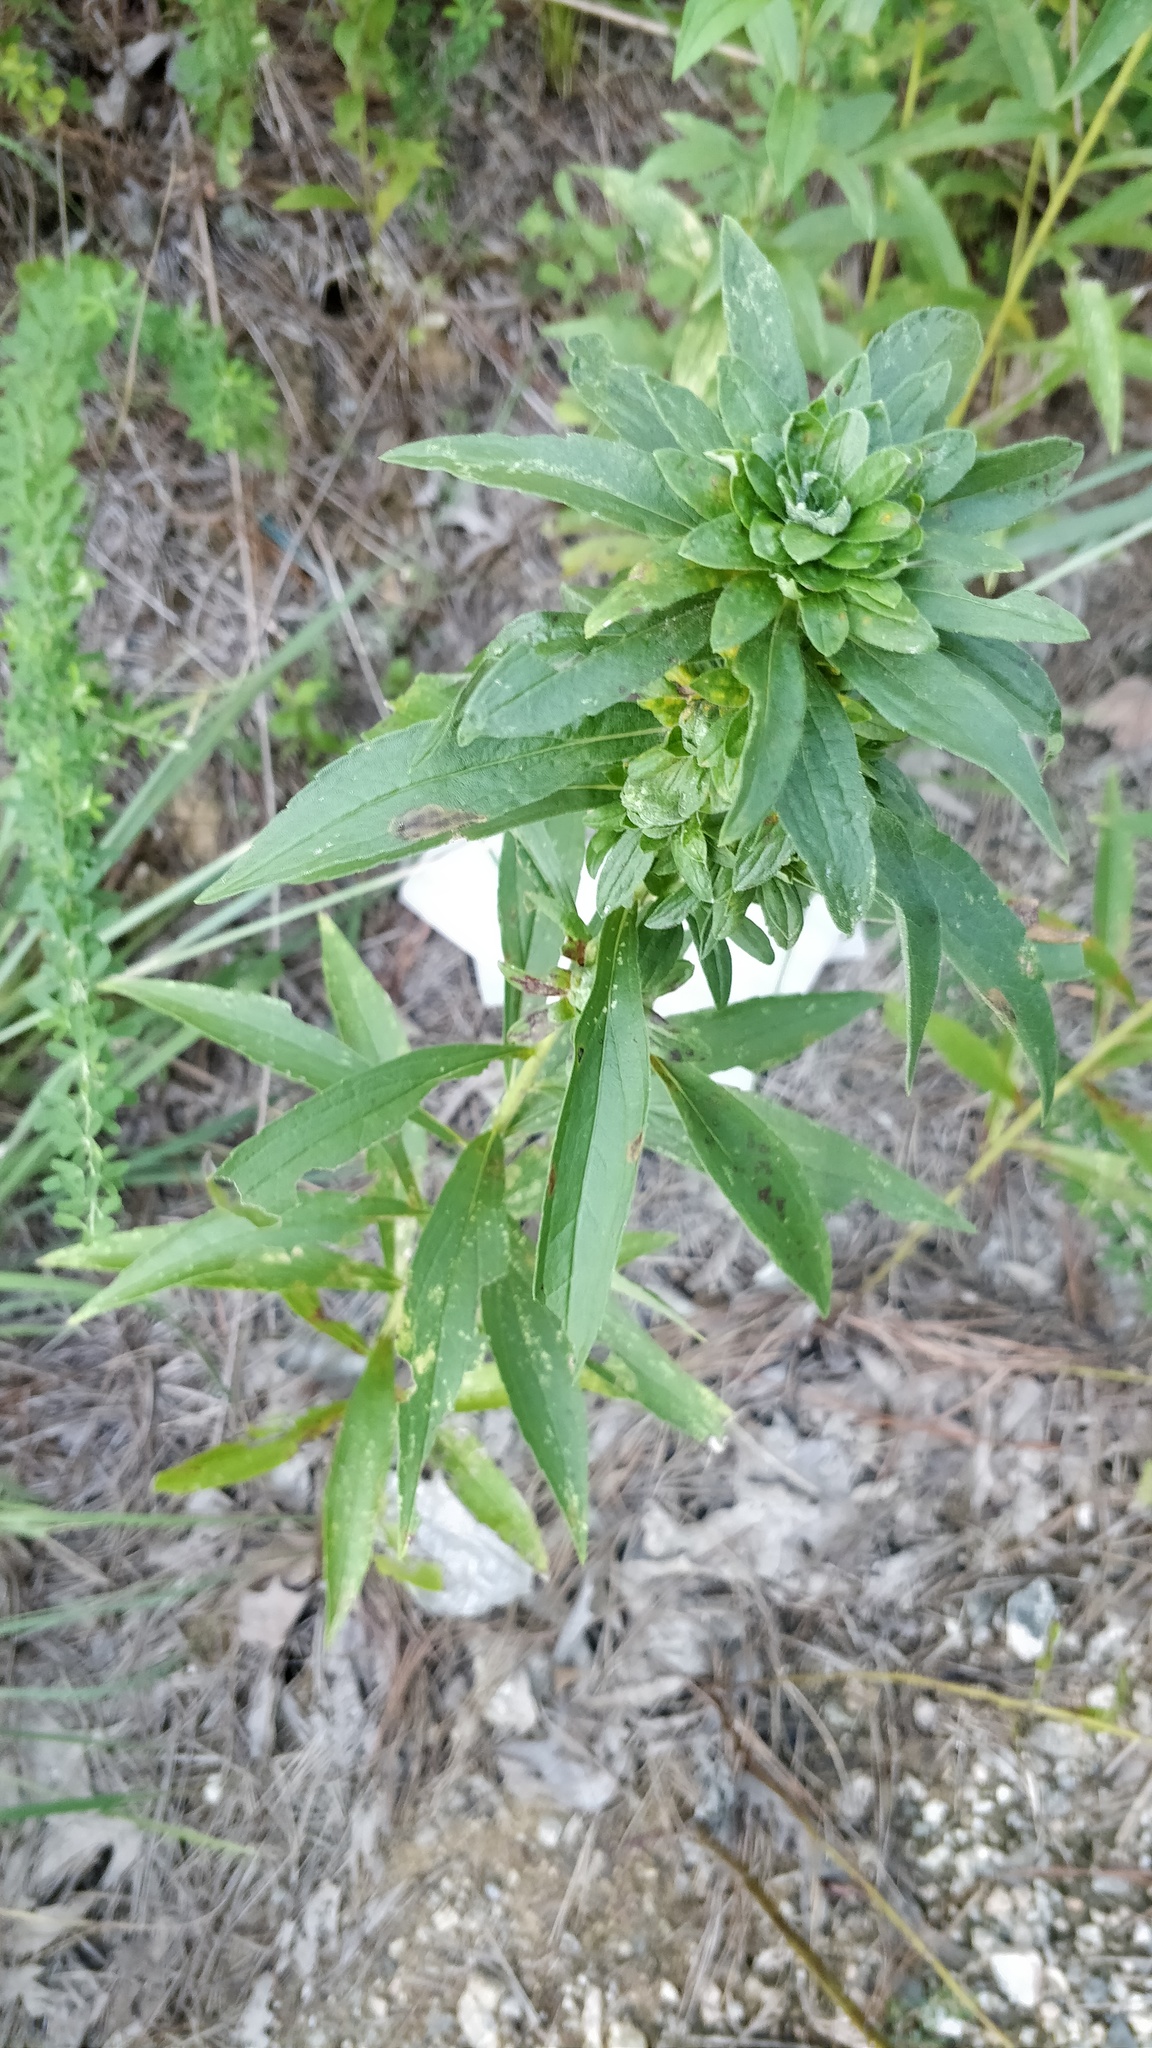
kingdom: Animalia
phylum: Arthropoda
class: Insecta
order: Diptera
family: Tephritidae
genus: Procecidochares
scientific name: Procecidochares atra
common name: Goldenrod brussels sprout gall fly
